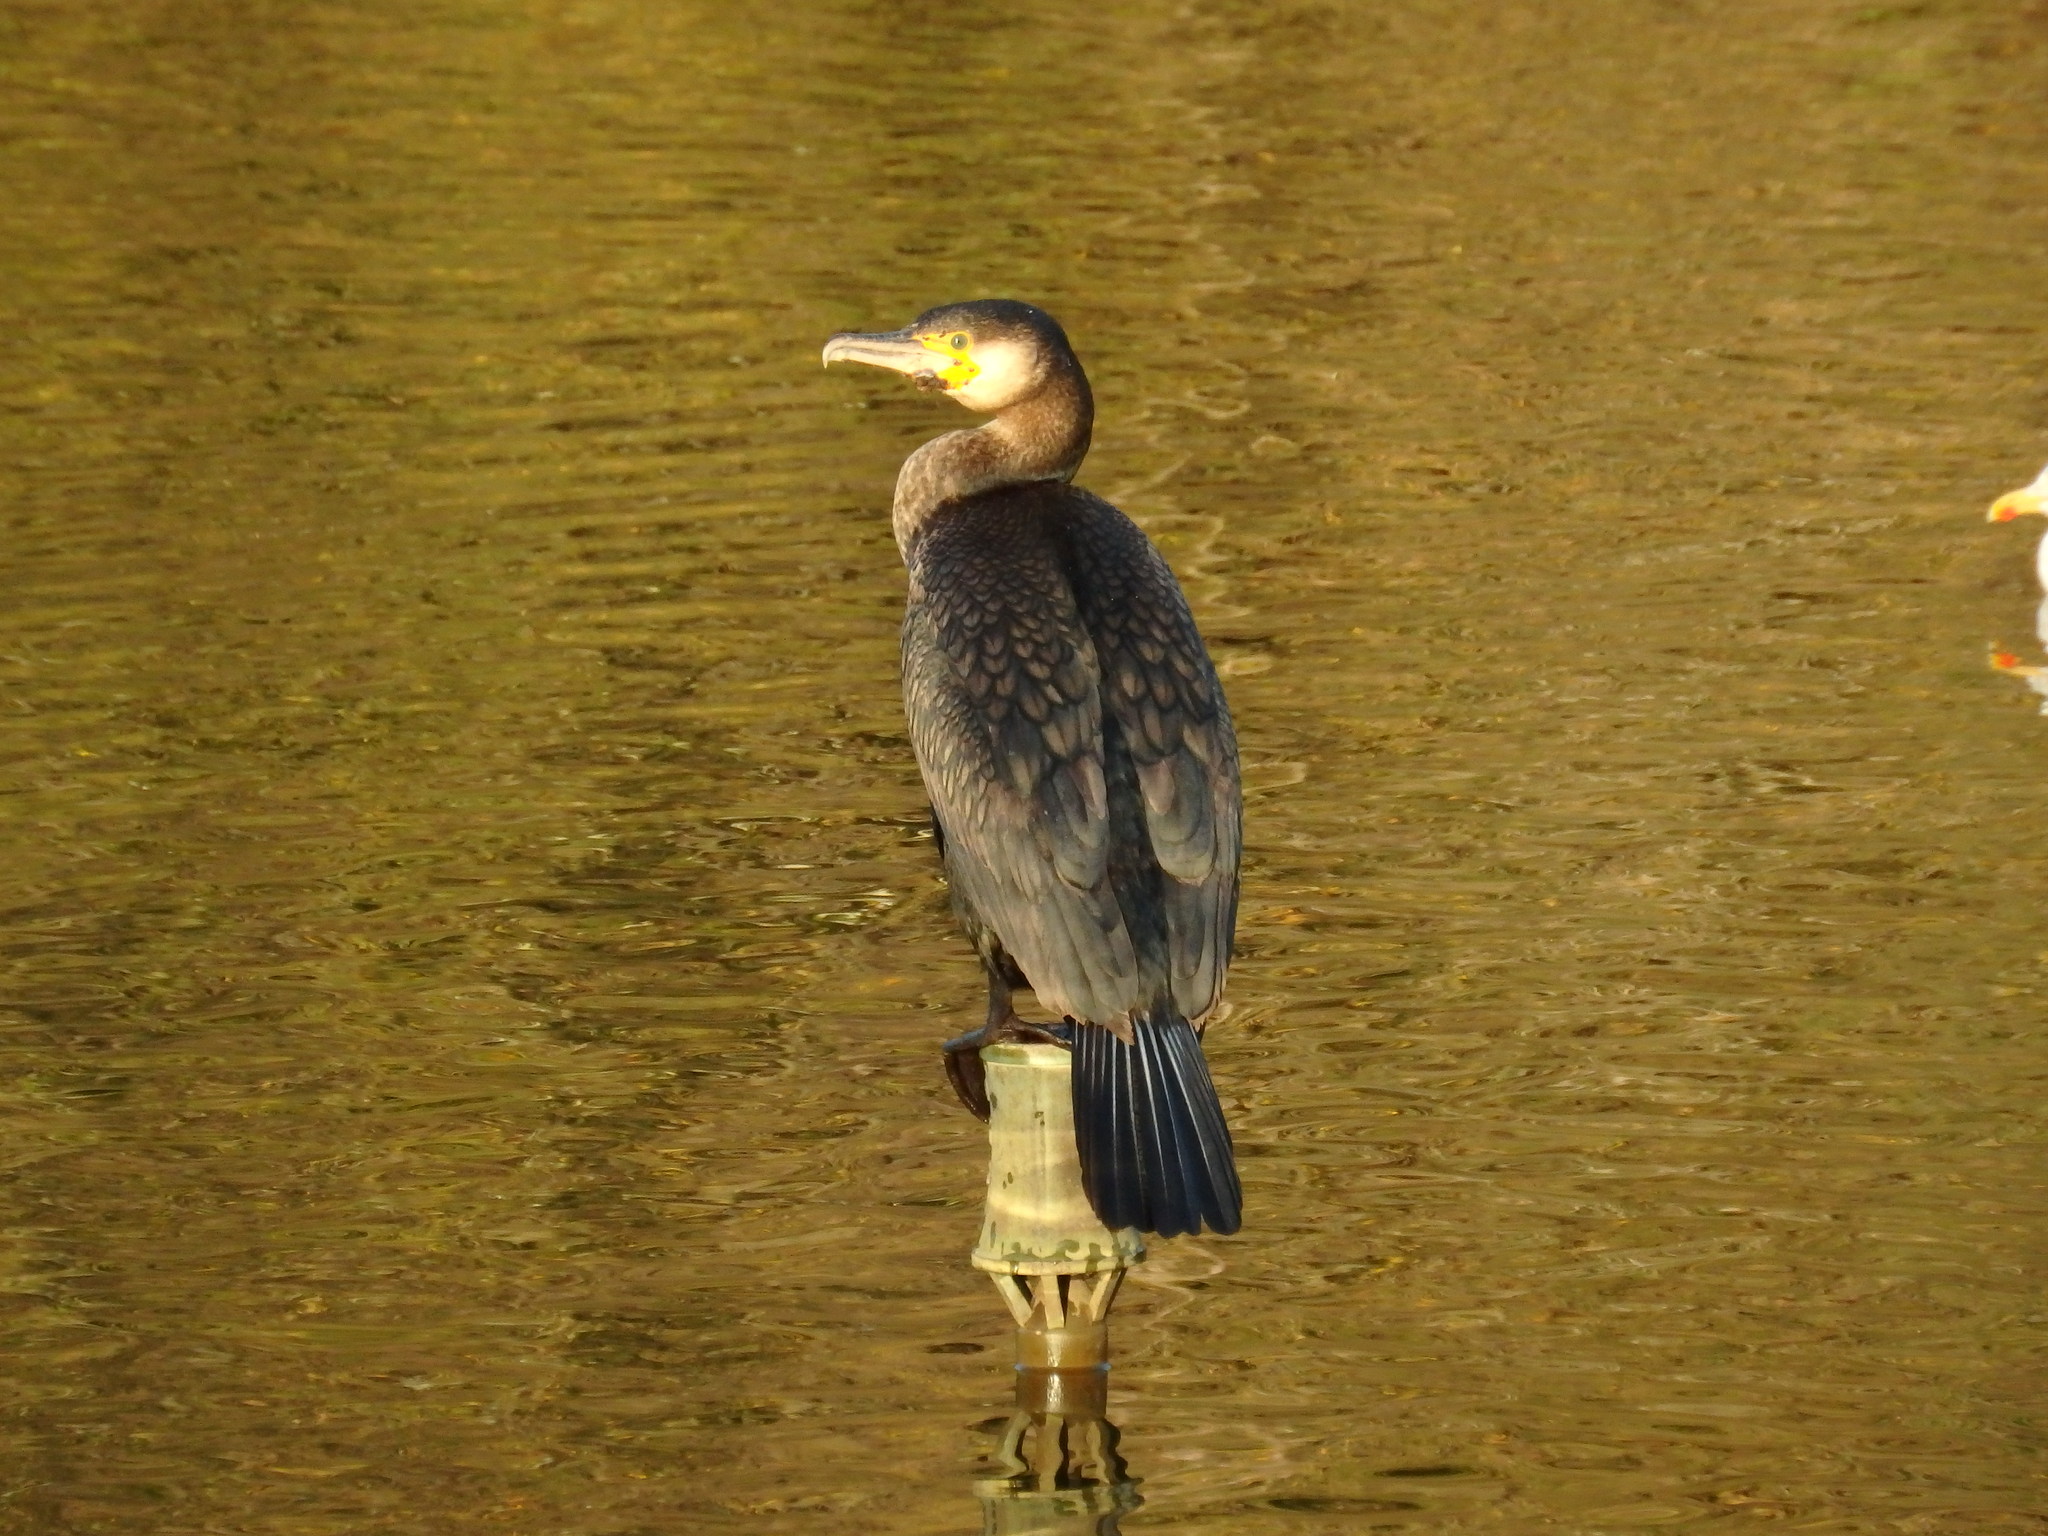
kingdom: Animalia
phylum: Chordata
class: Aves
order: Suliformes
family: Phalacrocoracidae
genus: Phalacrocorax
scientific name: Phalacrocorax carbo
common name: Great cormorant
